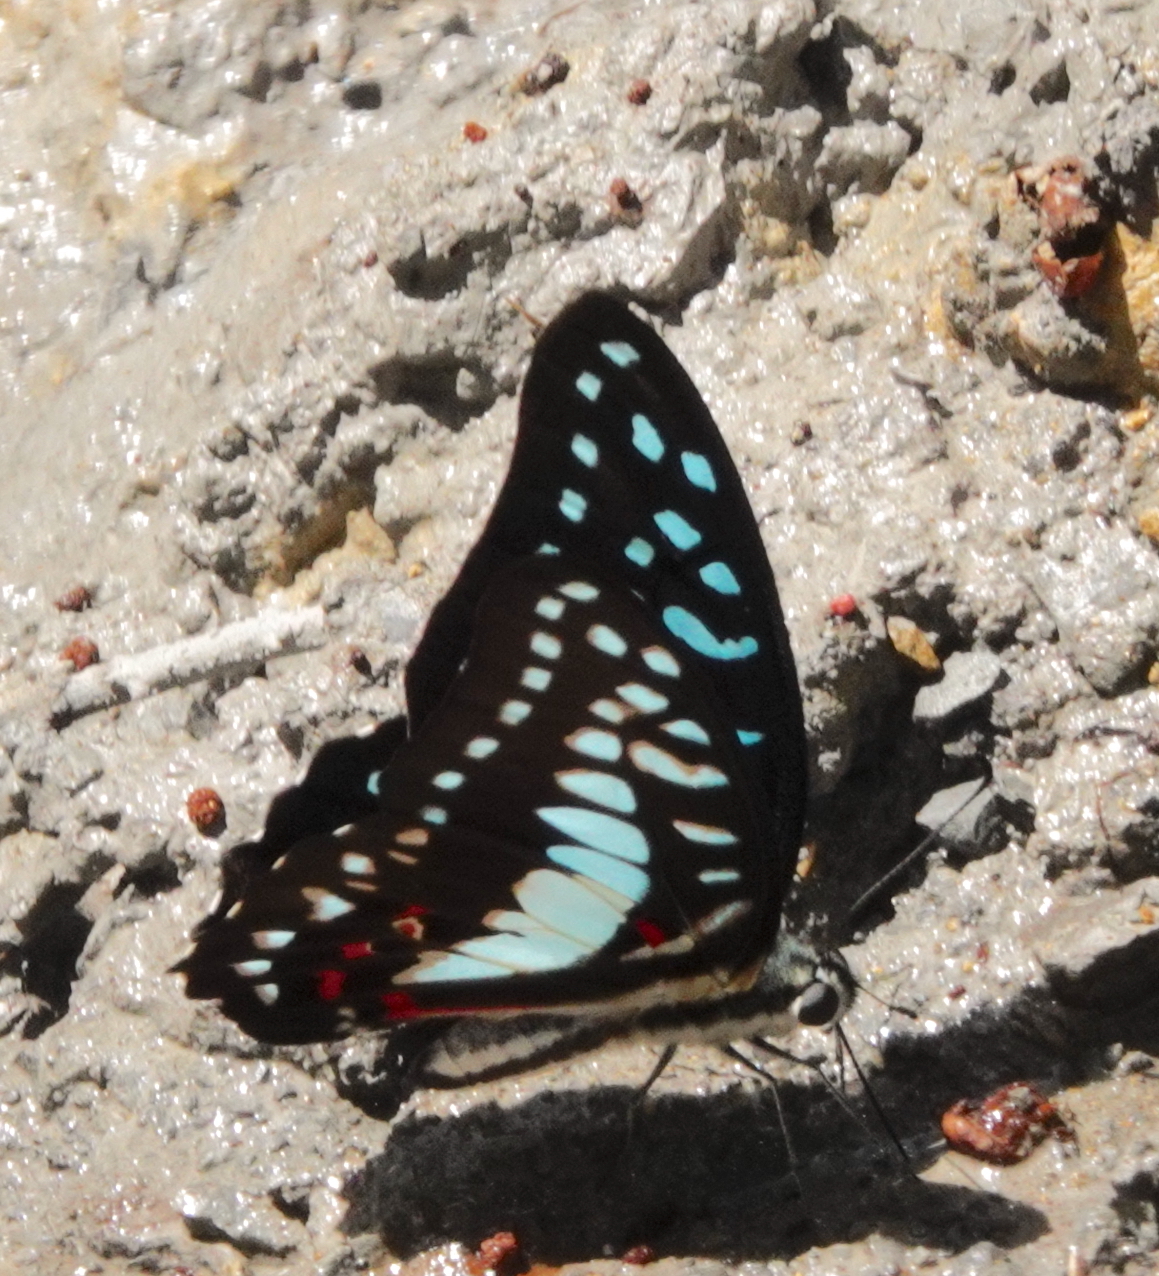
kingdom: Animalia
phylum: Arthropoda
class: Insecta
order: Lepidoptera
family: Papilionidae
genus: Graphium
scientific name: Graphium eurypylus
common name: Great jay
